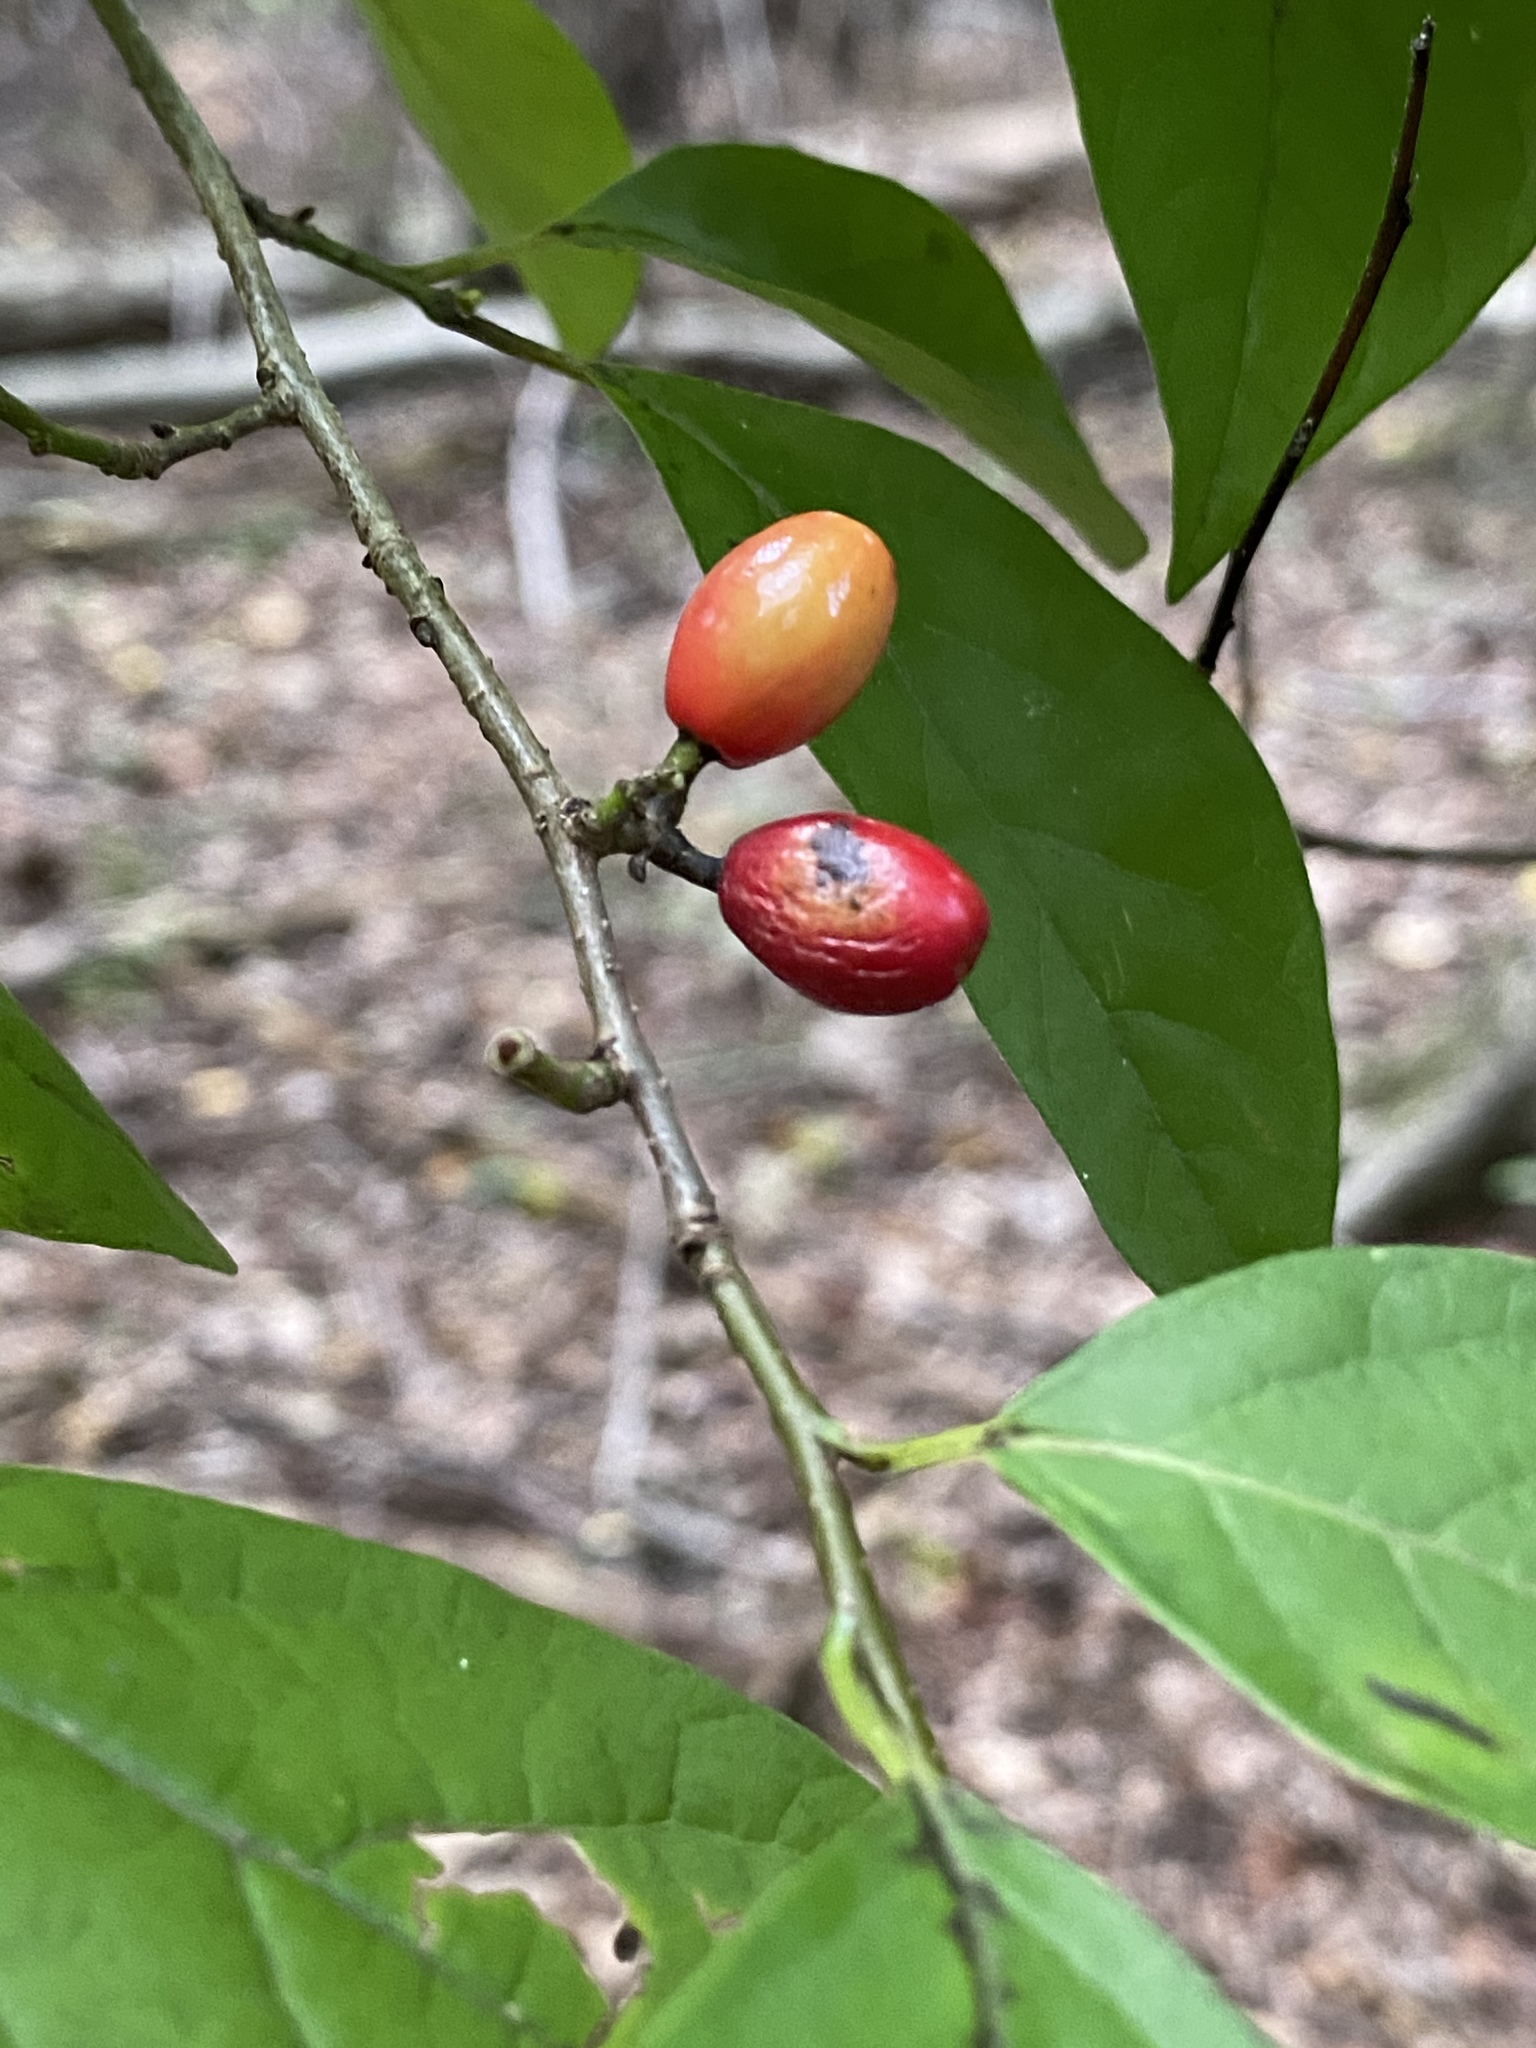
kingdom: Plantae
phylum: Tracheophyta
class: Magnoliopsida
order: Laurales
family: Lauraceae
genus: Lindera
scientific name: Lindera benzoin
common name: Spicebush
